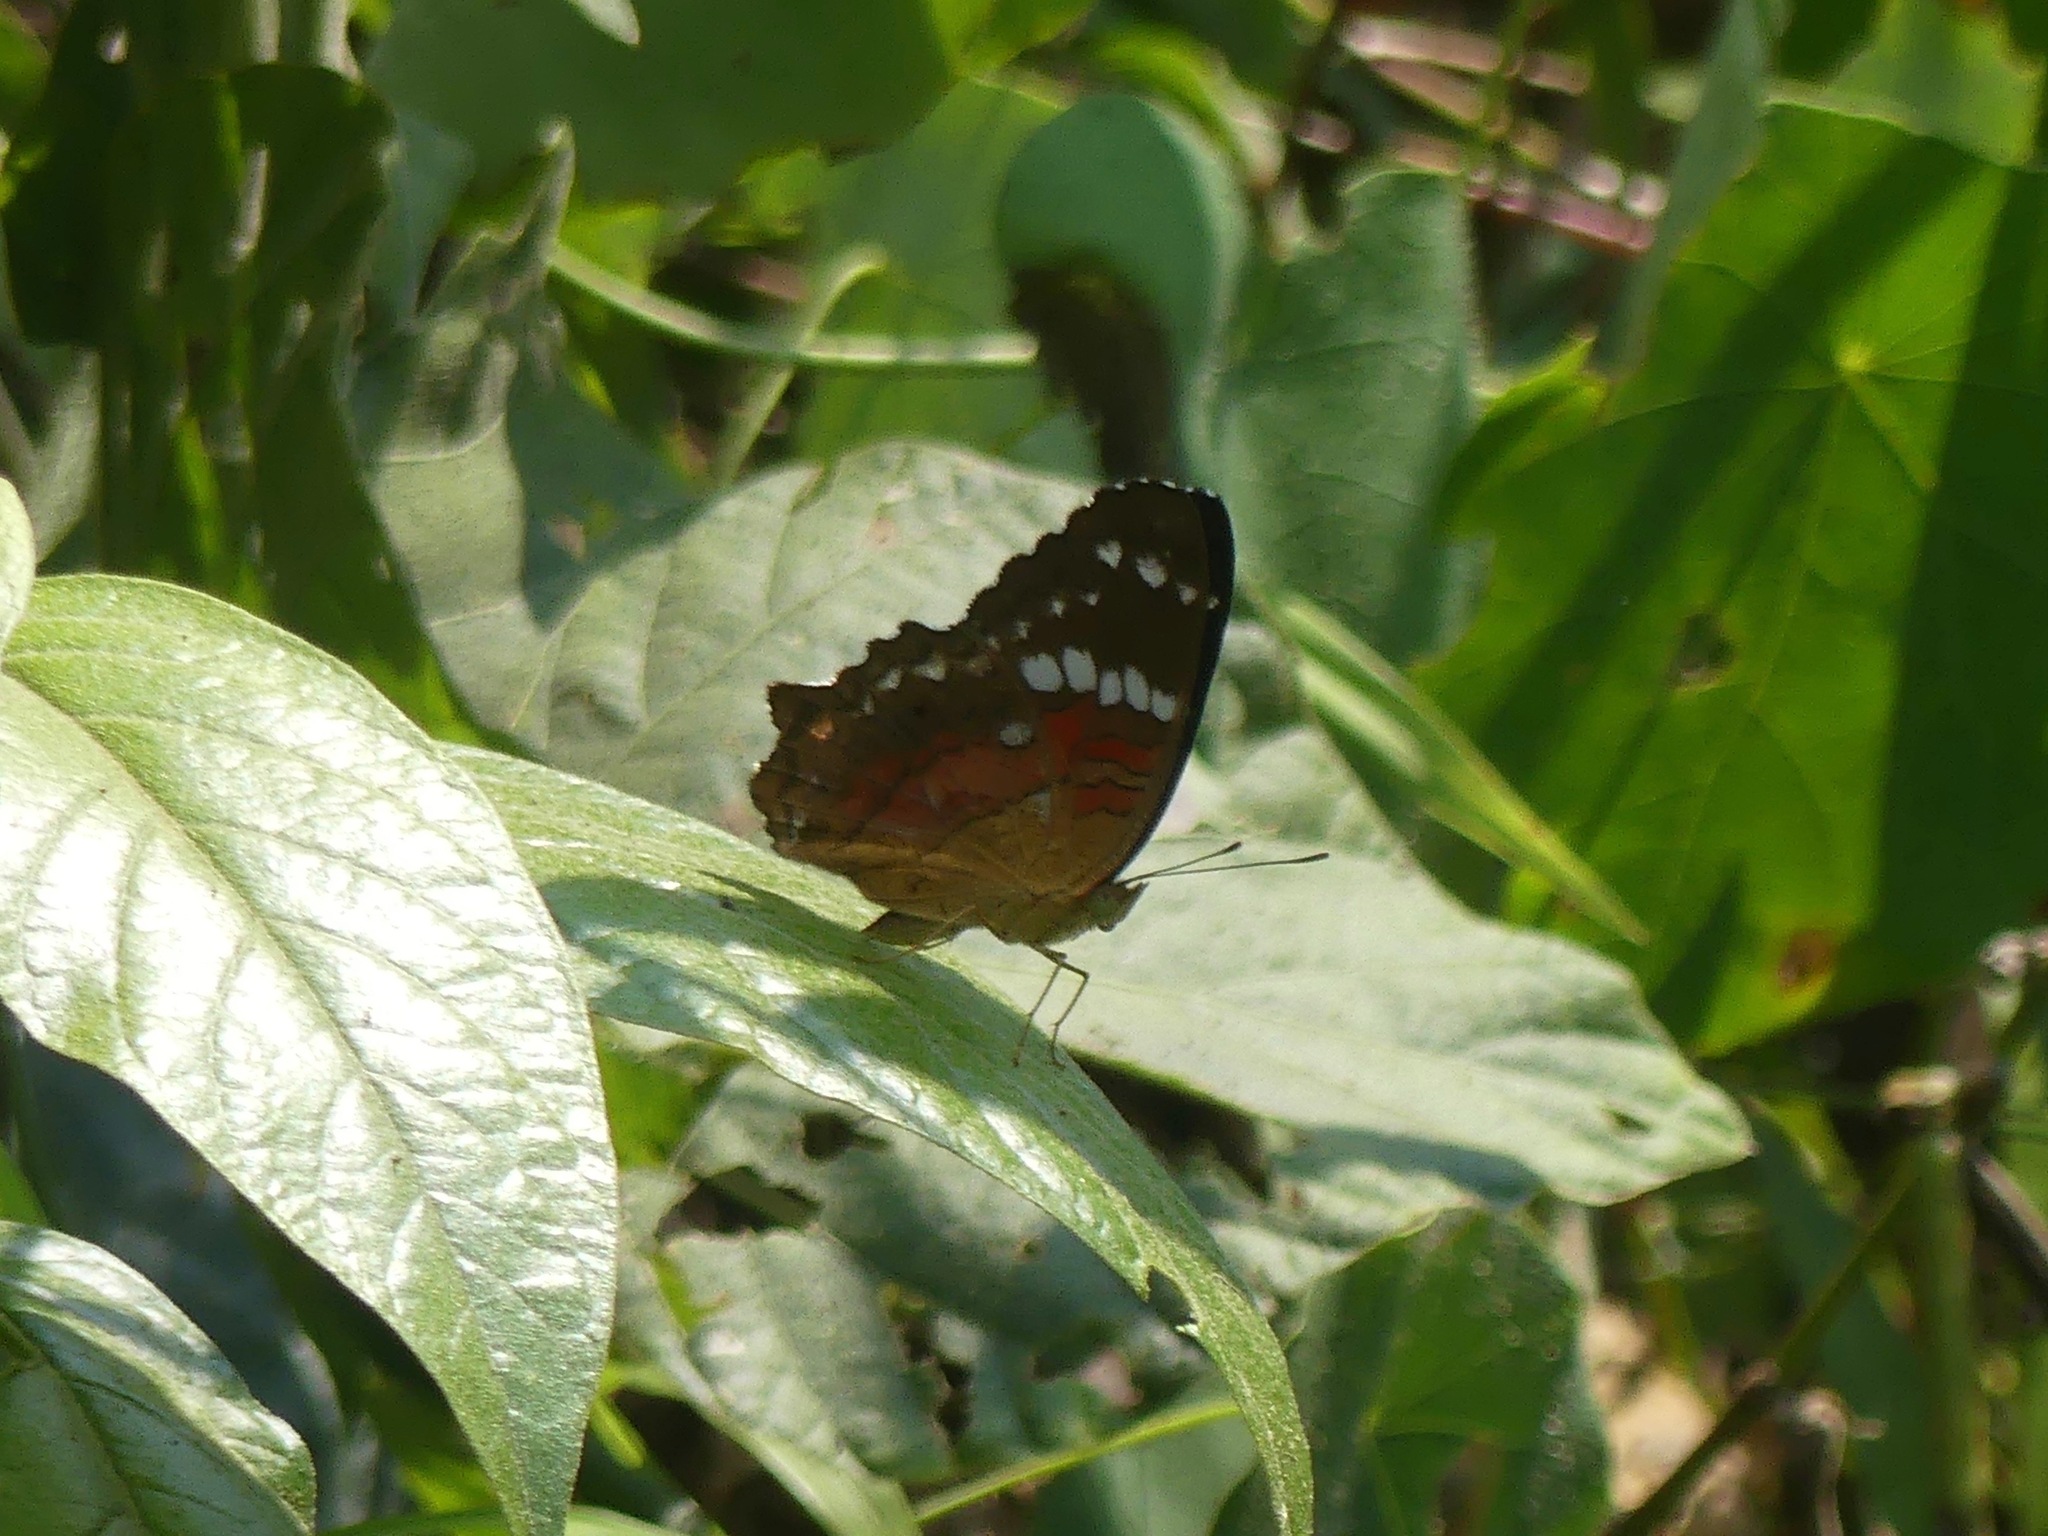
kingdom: Animalia
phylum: Arthropoda
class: Insecta
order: Lepidoptera
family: Nymphalidae
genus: Anartia
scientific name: Anartia amathea
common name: Red peacock
